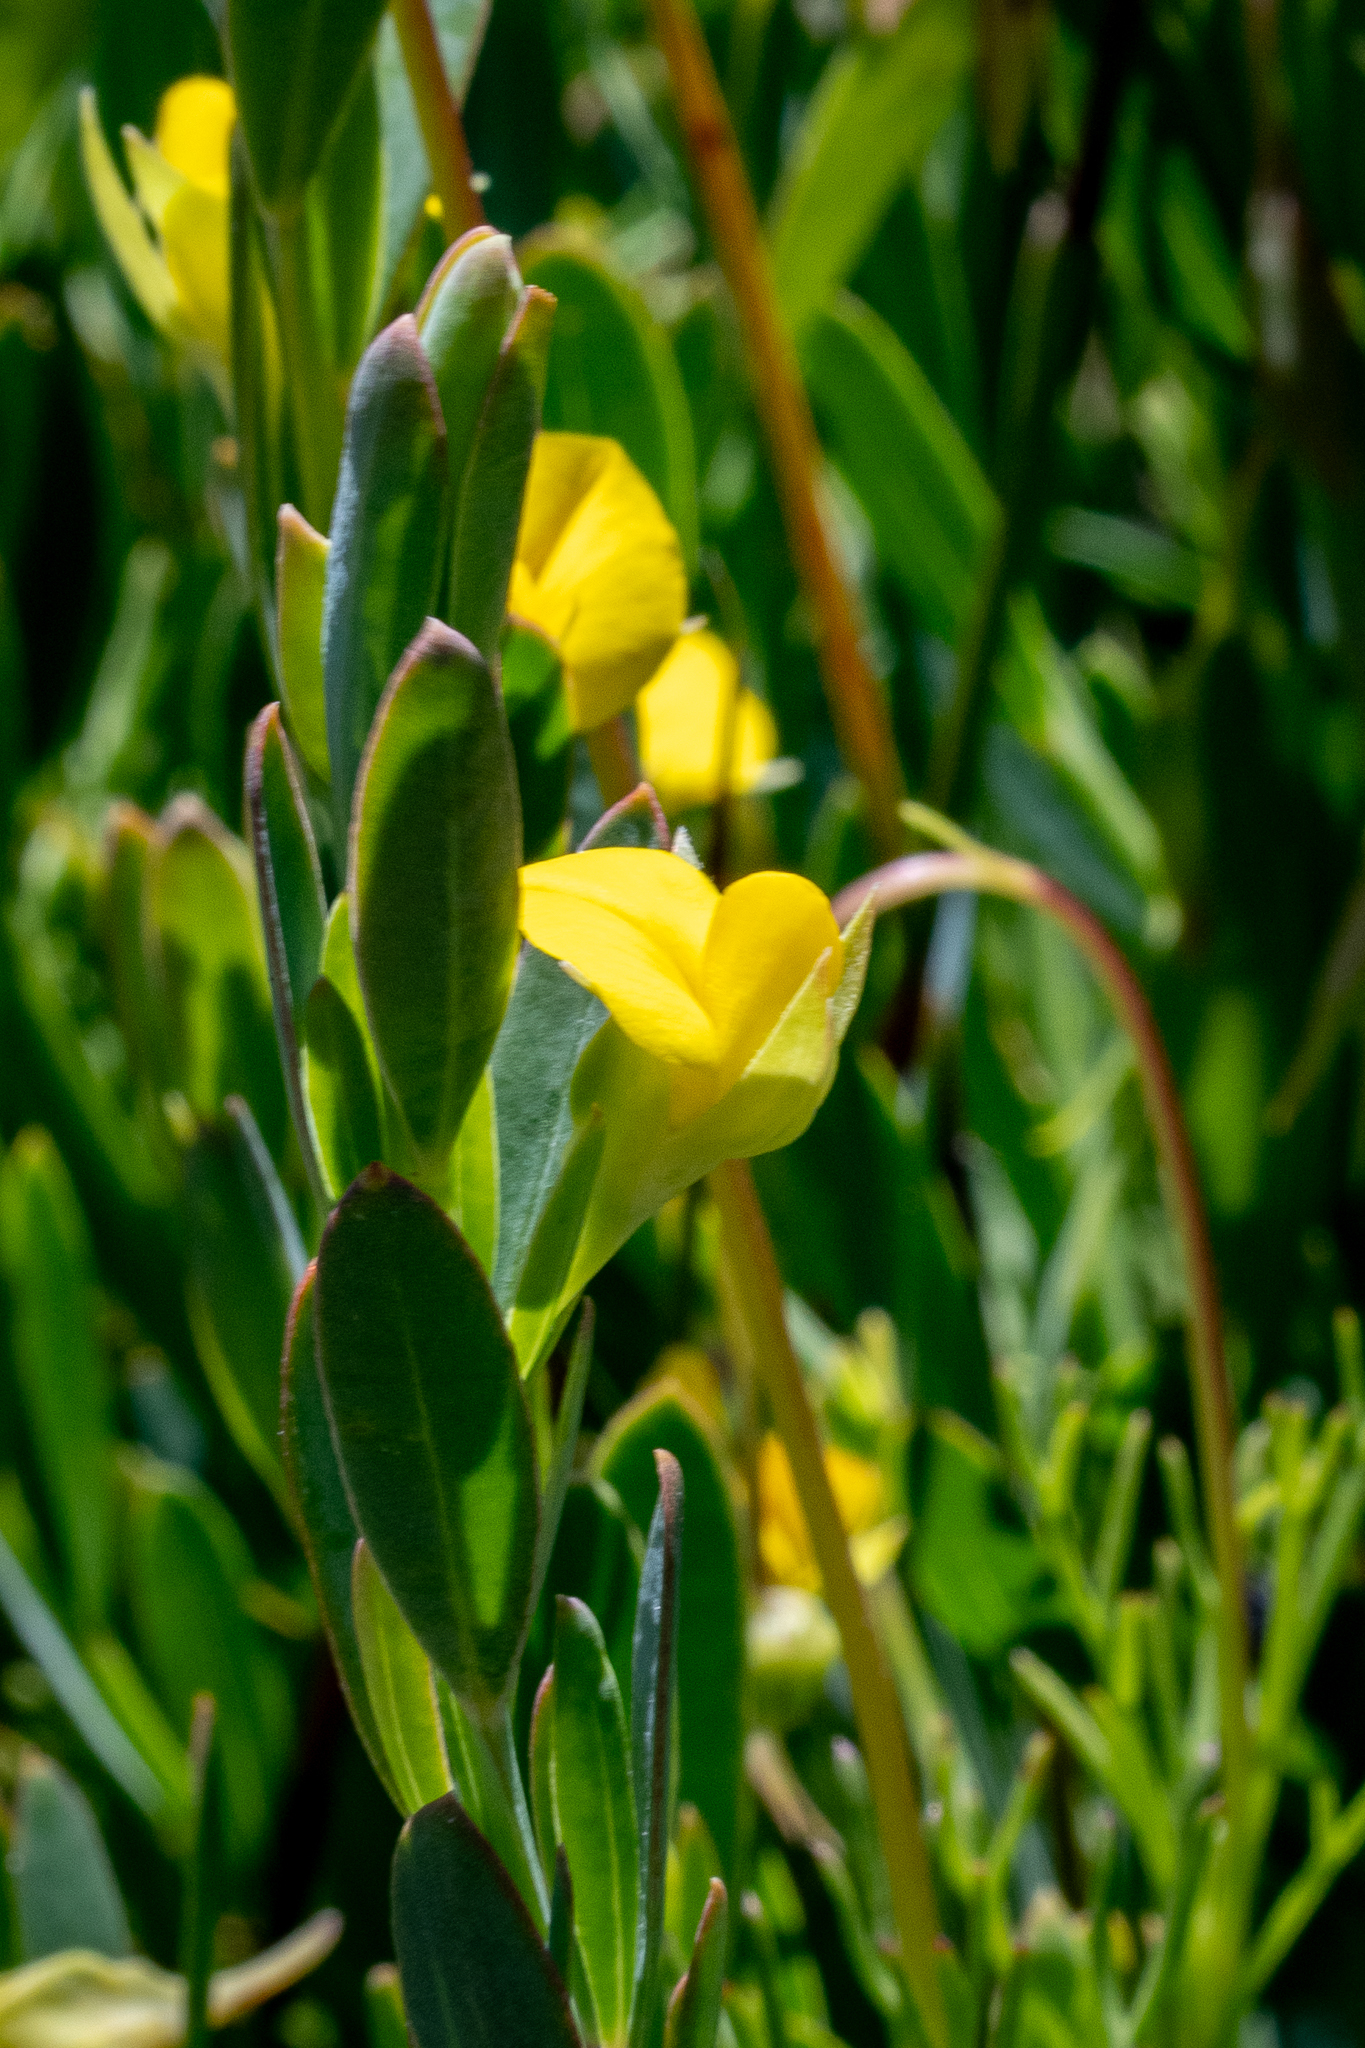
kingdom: Plantae
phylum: Tracheophyta
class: Magnoliopsida
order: Fabales
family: Fabaceae
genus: Rafnia
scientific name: Rafnia angulata
